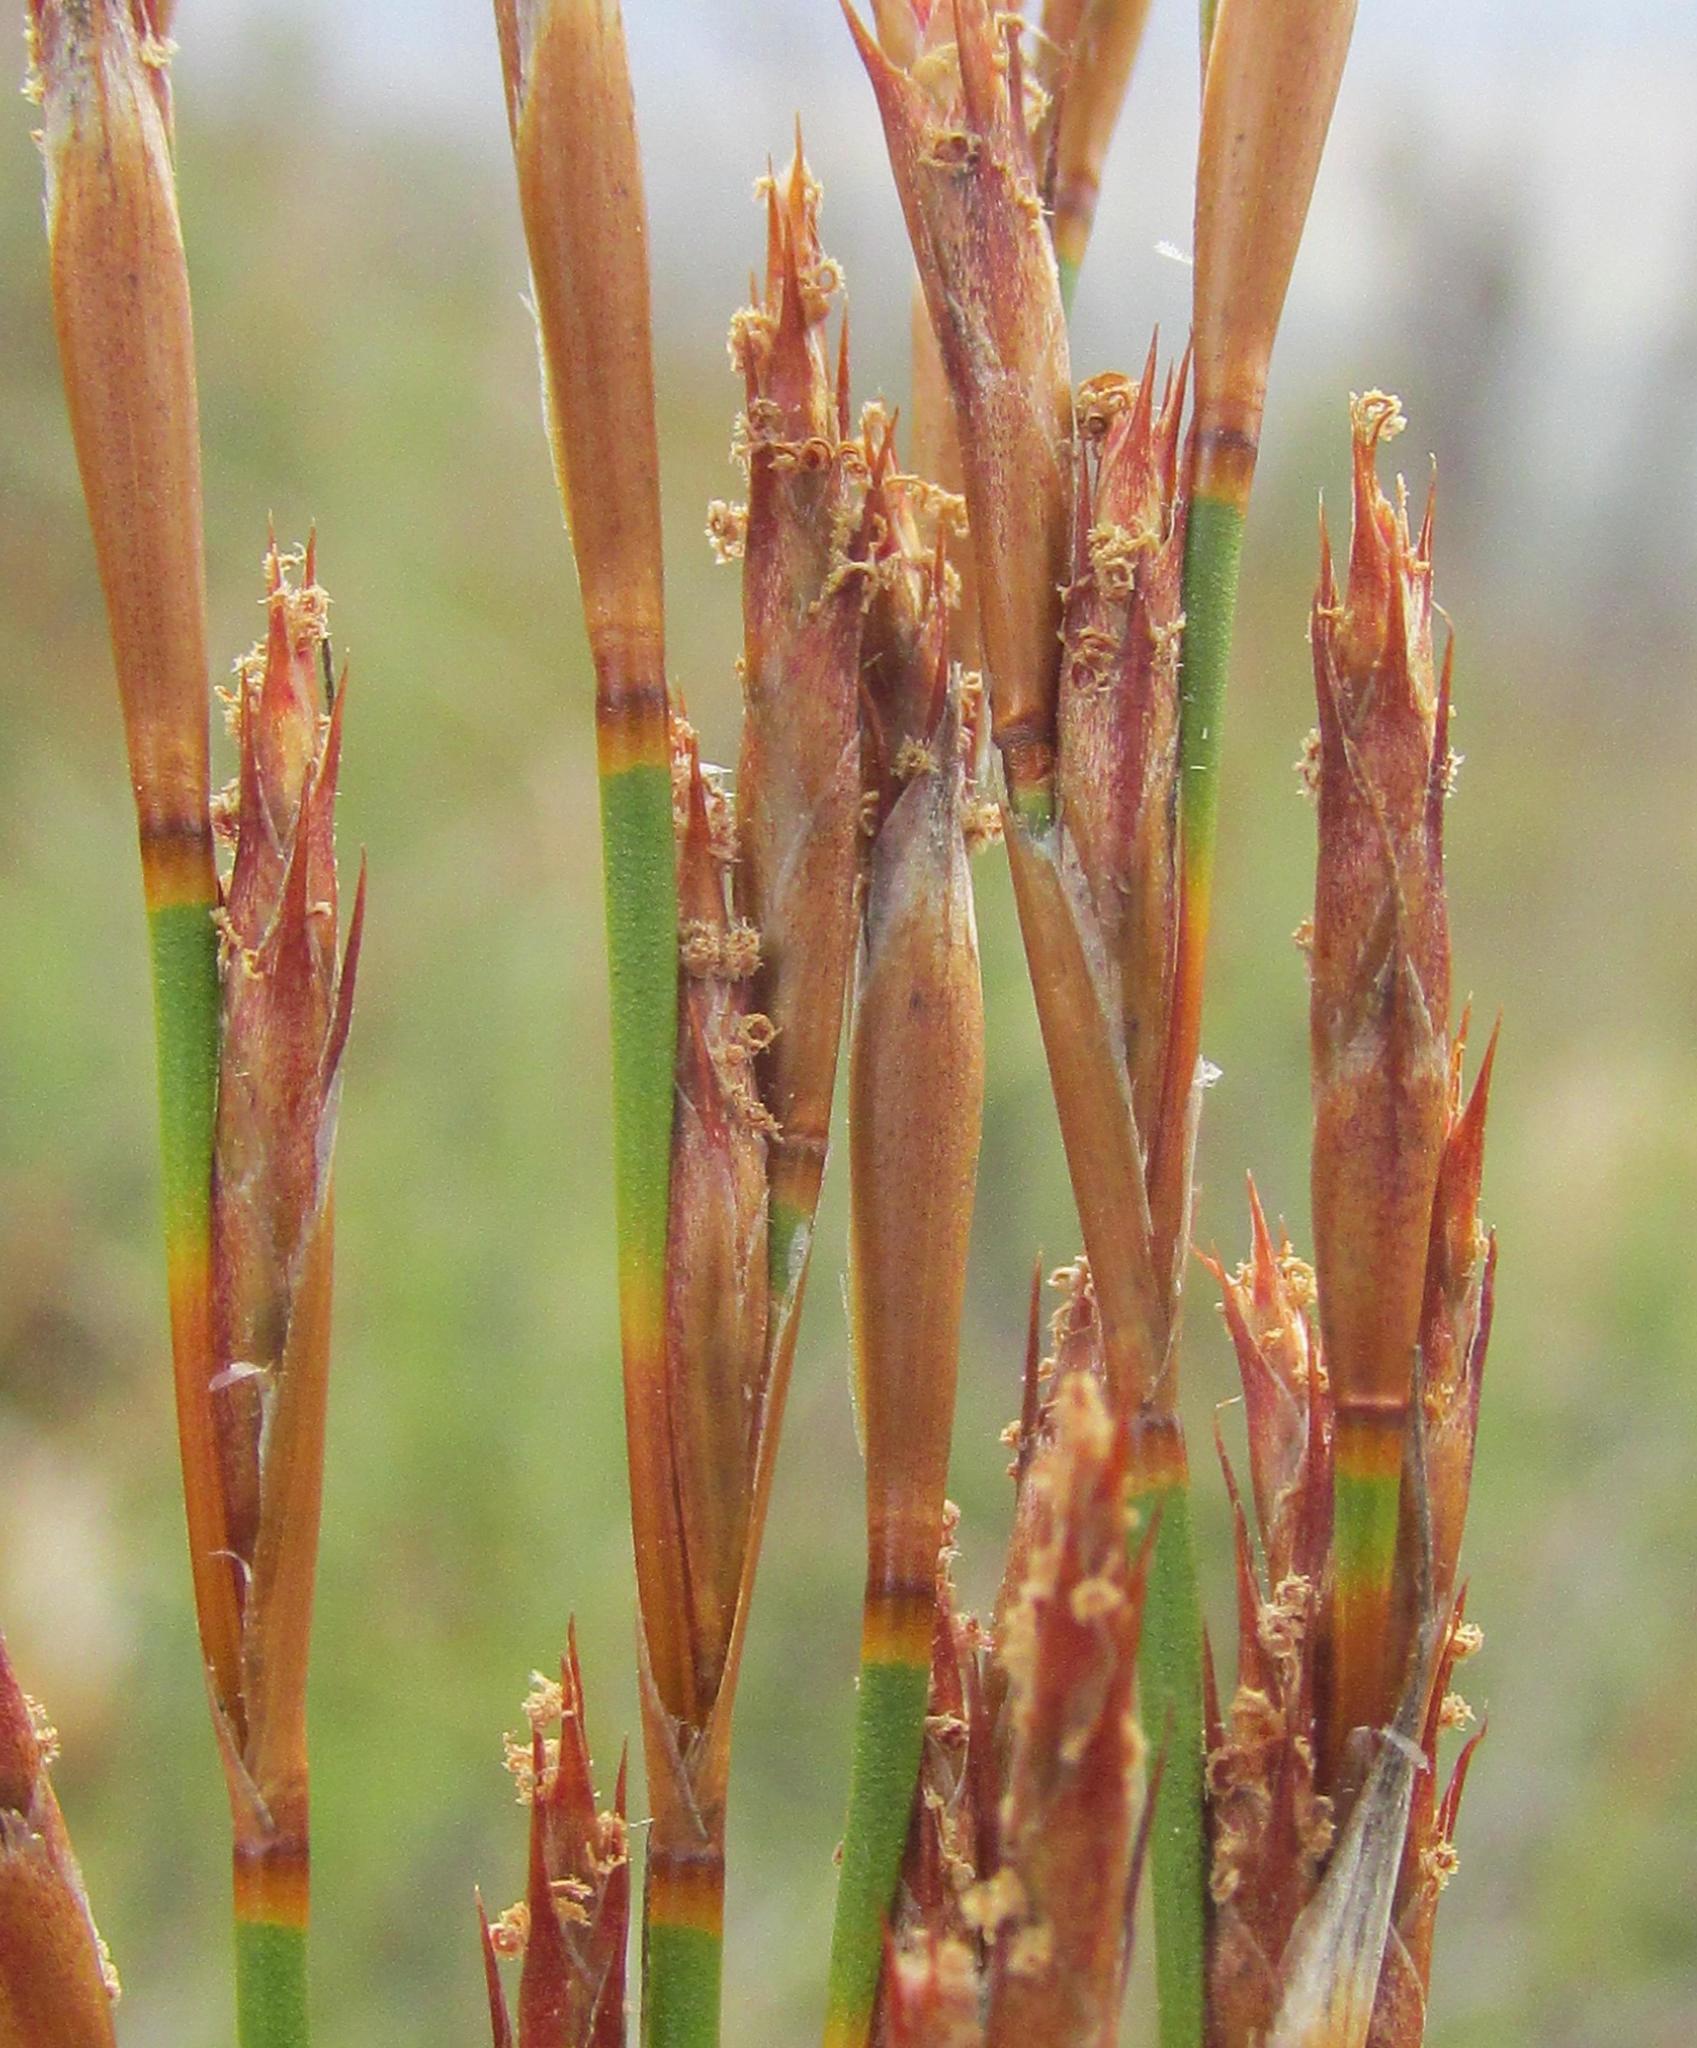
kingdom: Plantae
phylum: Tracheophyta
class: Liliopsida
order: Poales
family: Restionaceae
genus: Restio
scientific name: Restio andreaeanus
